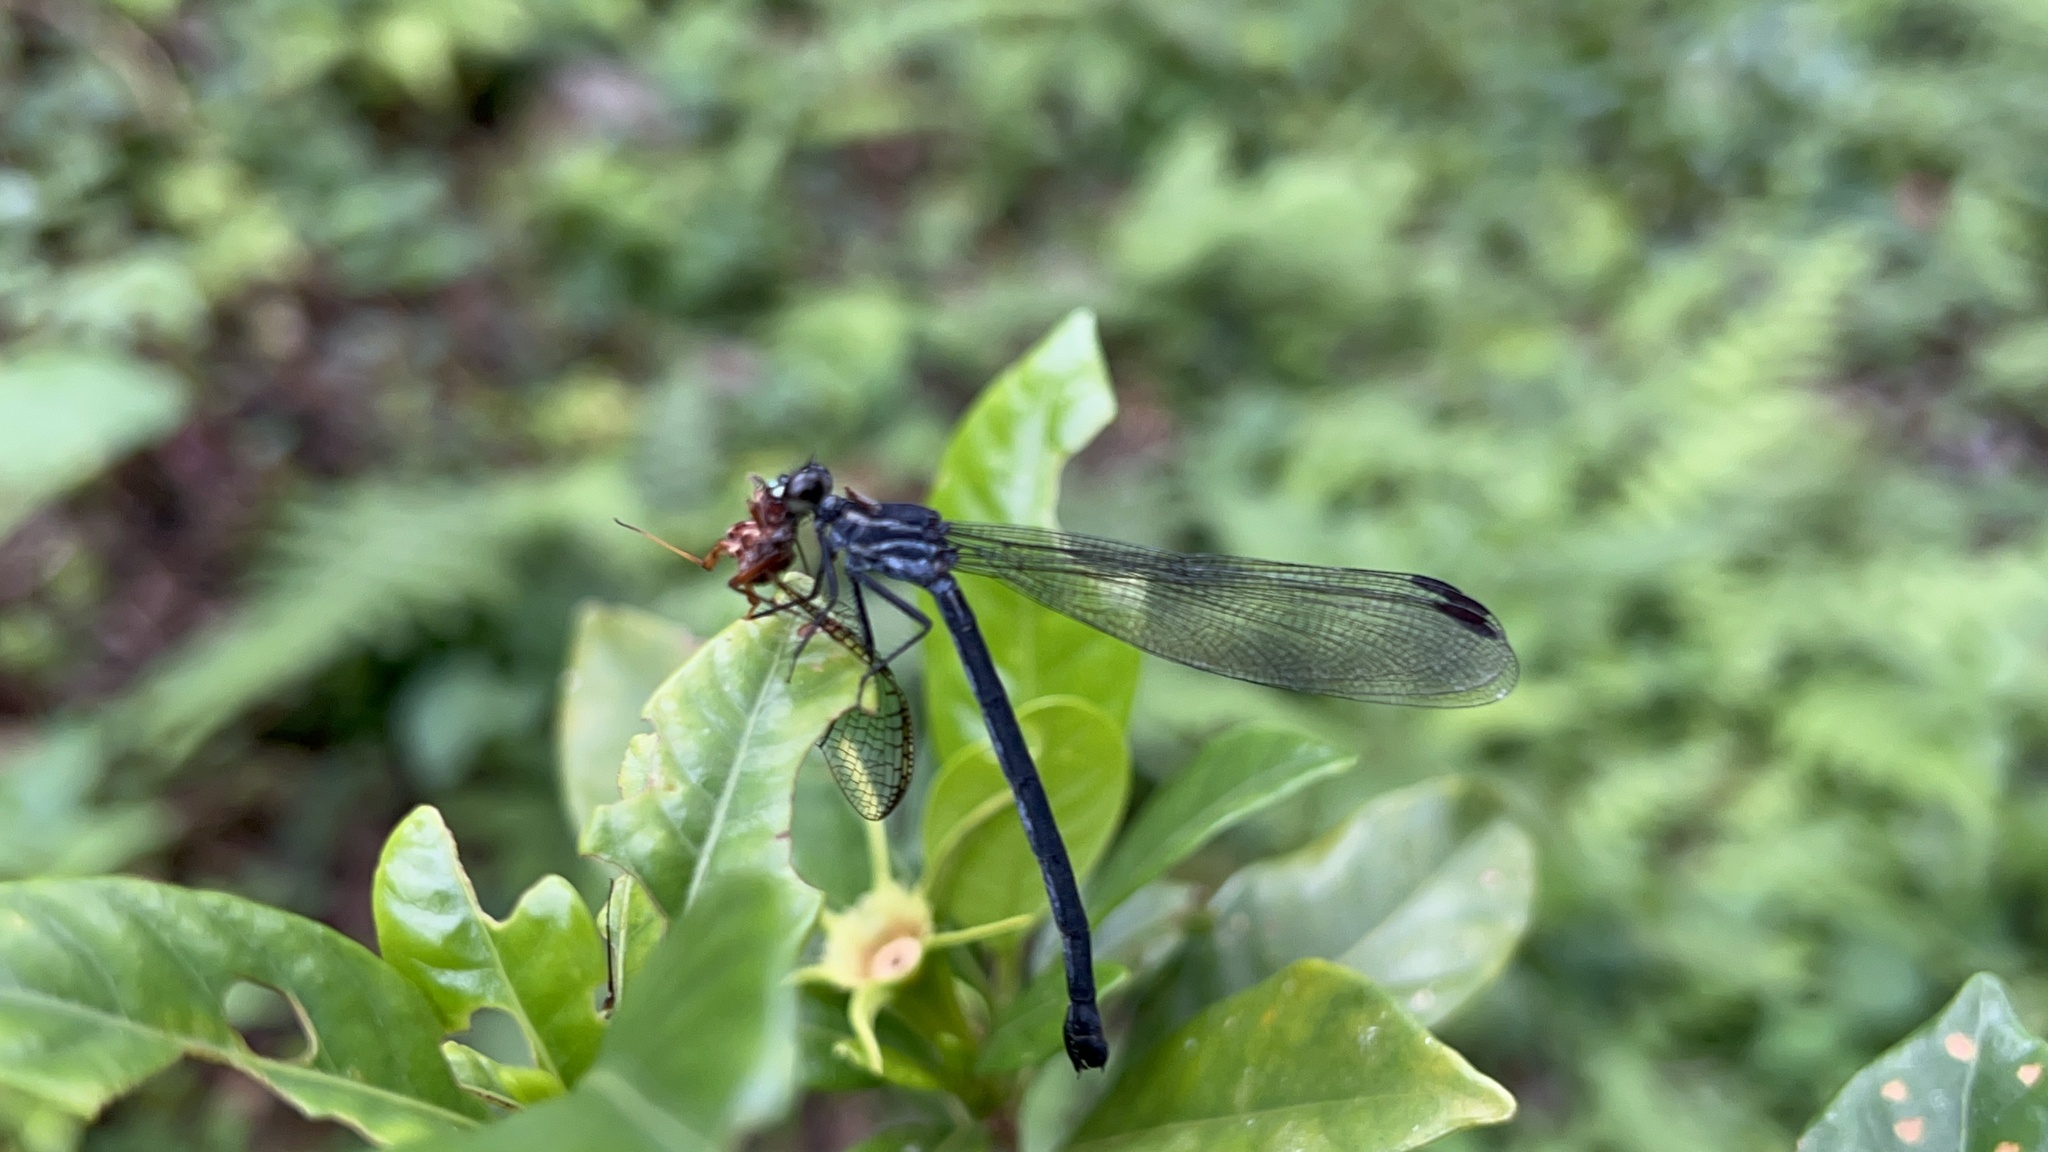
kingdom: Animalia
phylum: Arthropoda
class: Insecta
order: Odonata
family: Euphaeidae
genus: Bayadera
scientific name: Bayadera brevicauda
